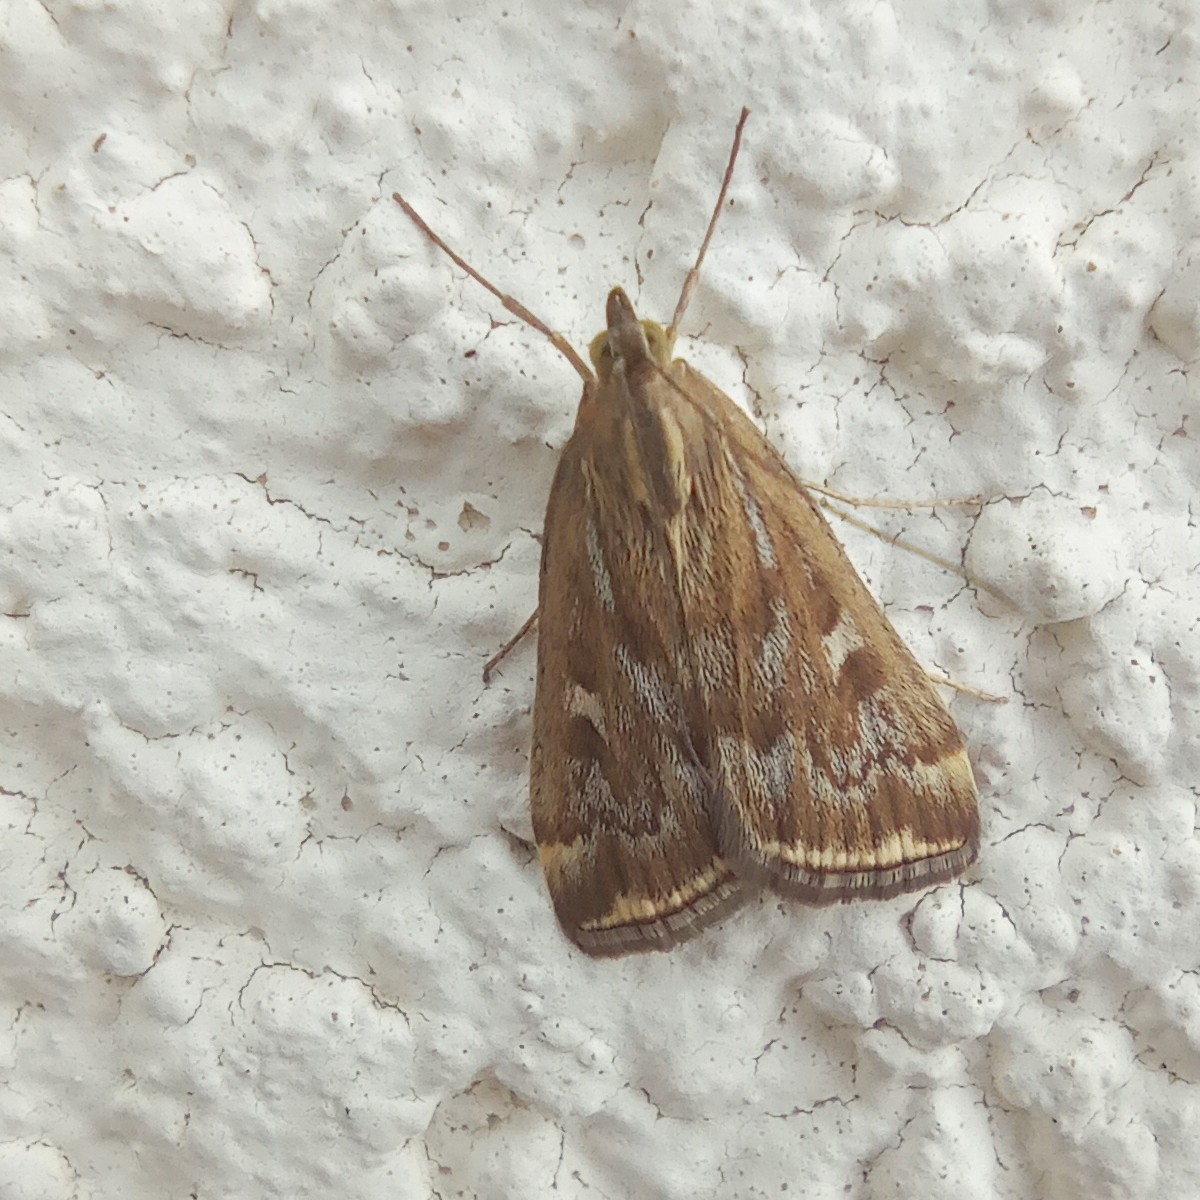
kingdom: Animalia
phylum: Arthropoda
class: Insecta
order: Lepidoptera
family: Crambidae
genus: Loxostege
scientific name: Loxostege sticticalis
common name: Crambid moth
